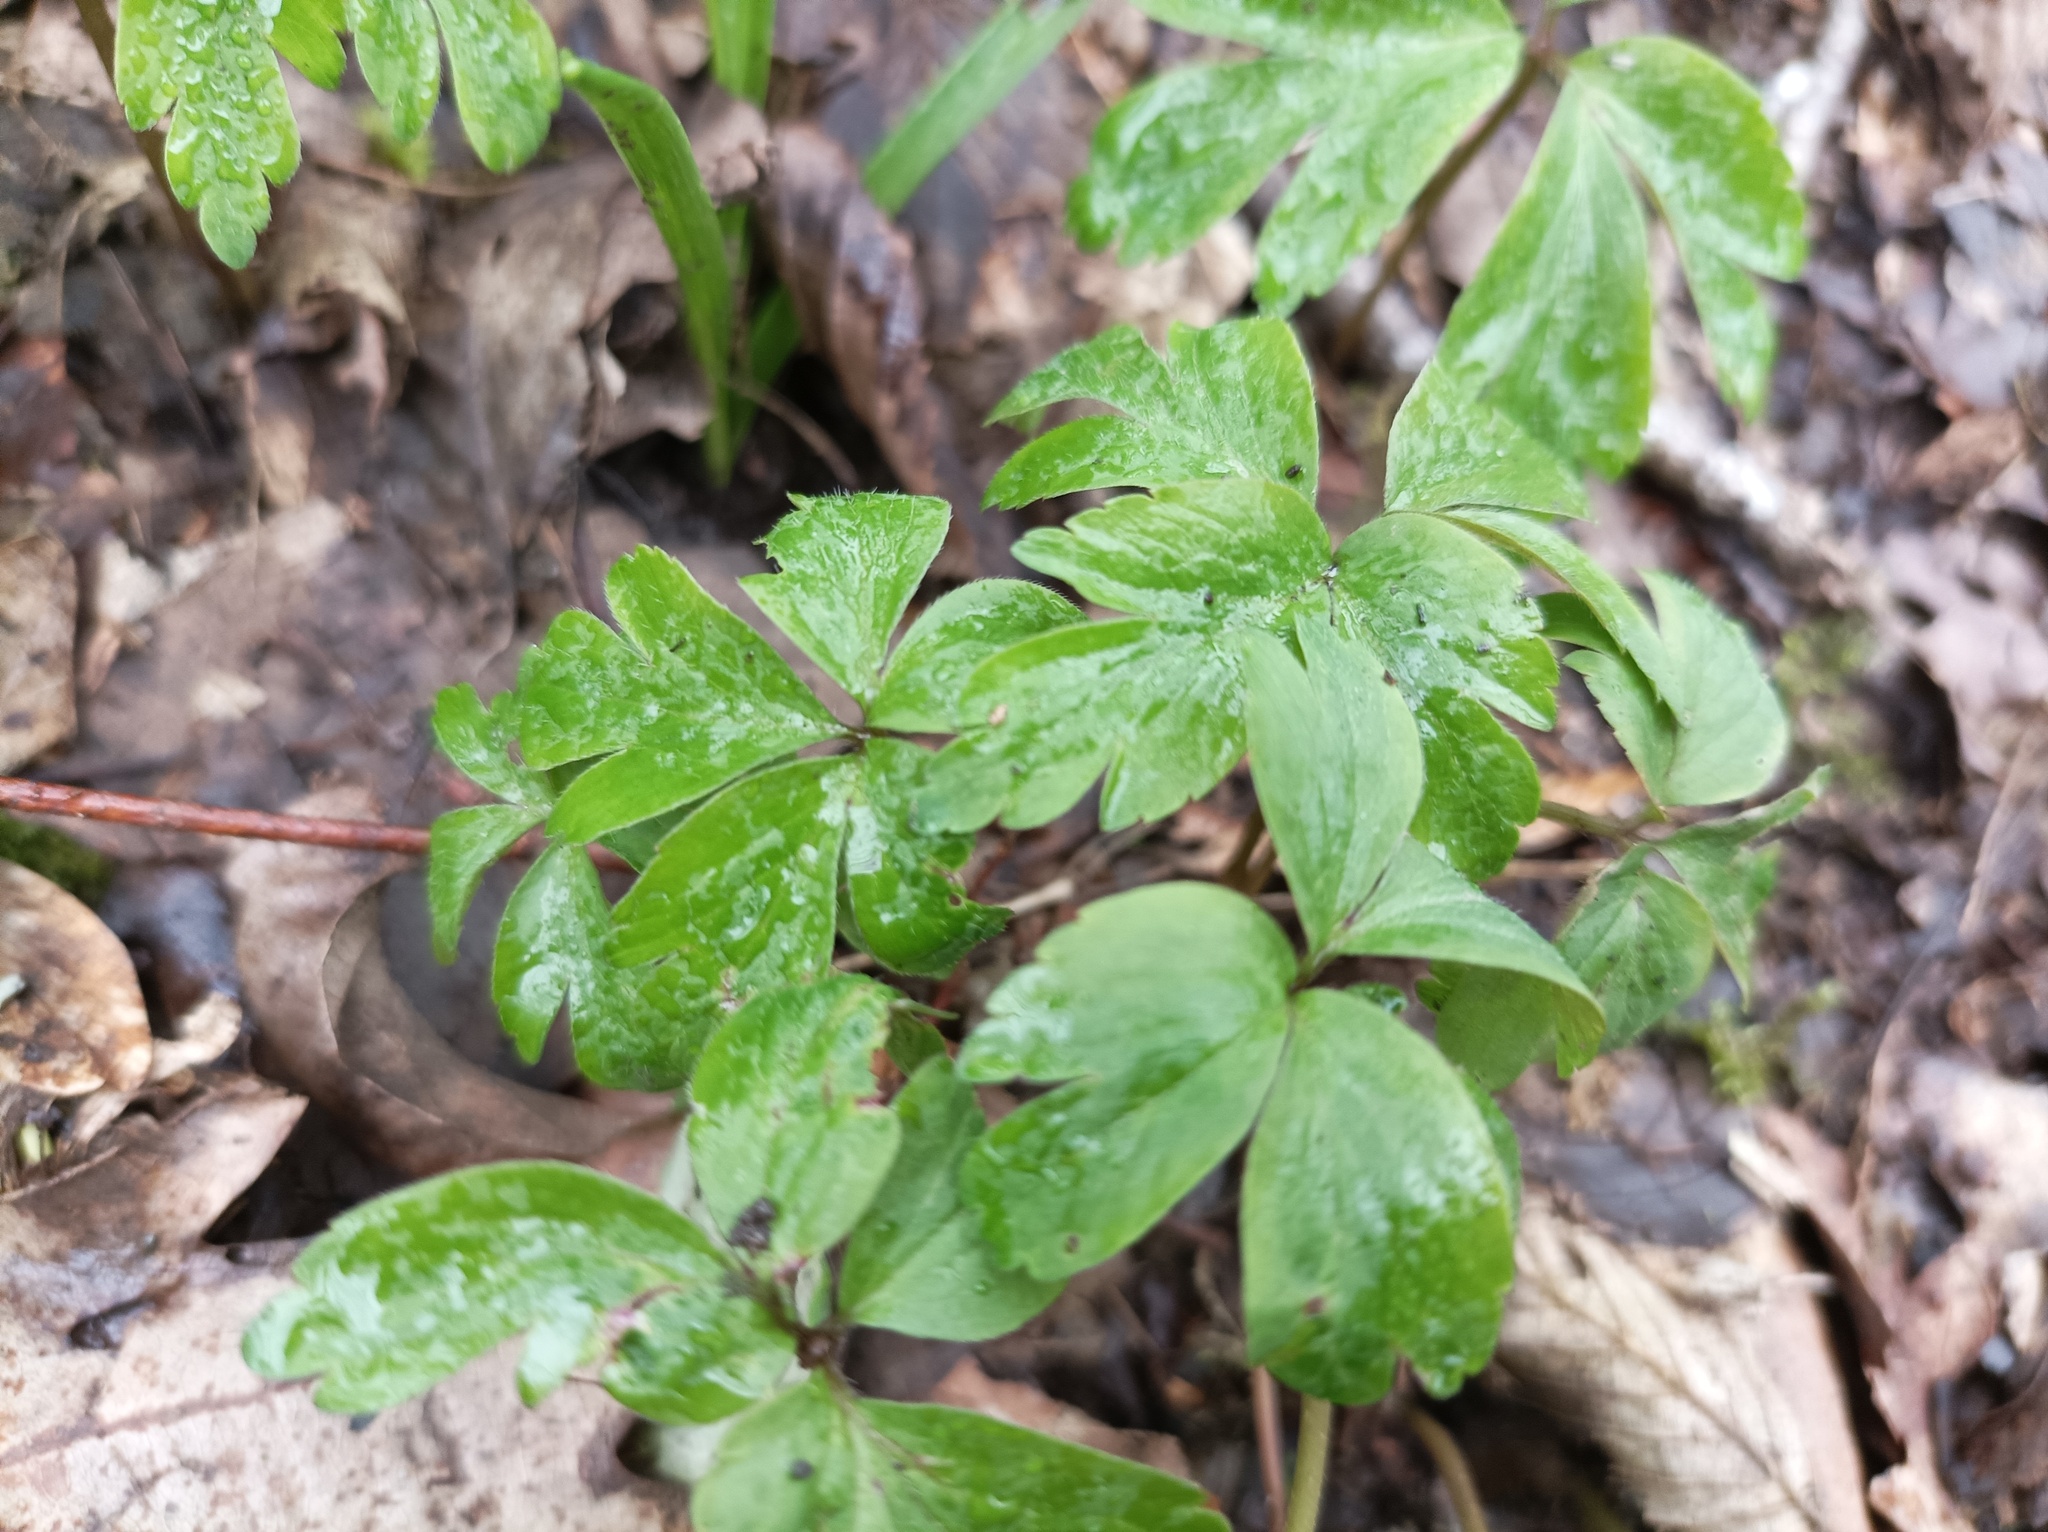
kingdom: Plantae
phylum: Tracheophyta
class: Magnoliopsida
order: Ranunculales
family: Ranunculaceae
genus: Anemone
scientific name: Anemone nemorosa
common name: Wood anemone
